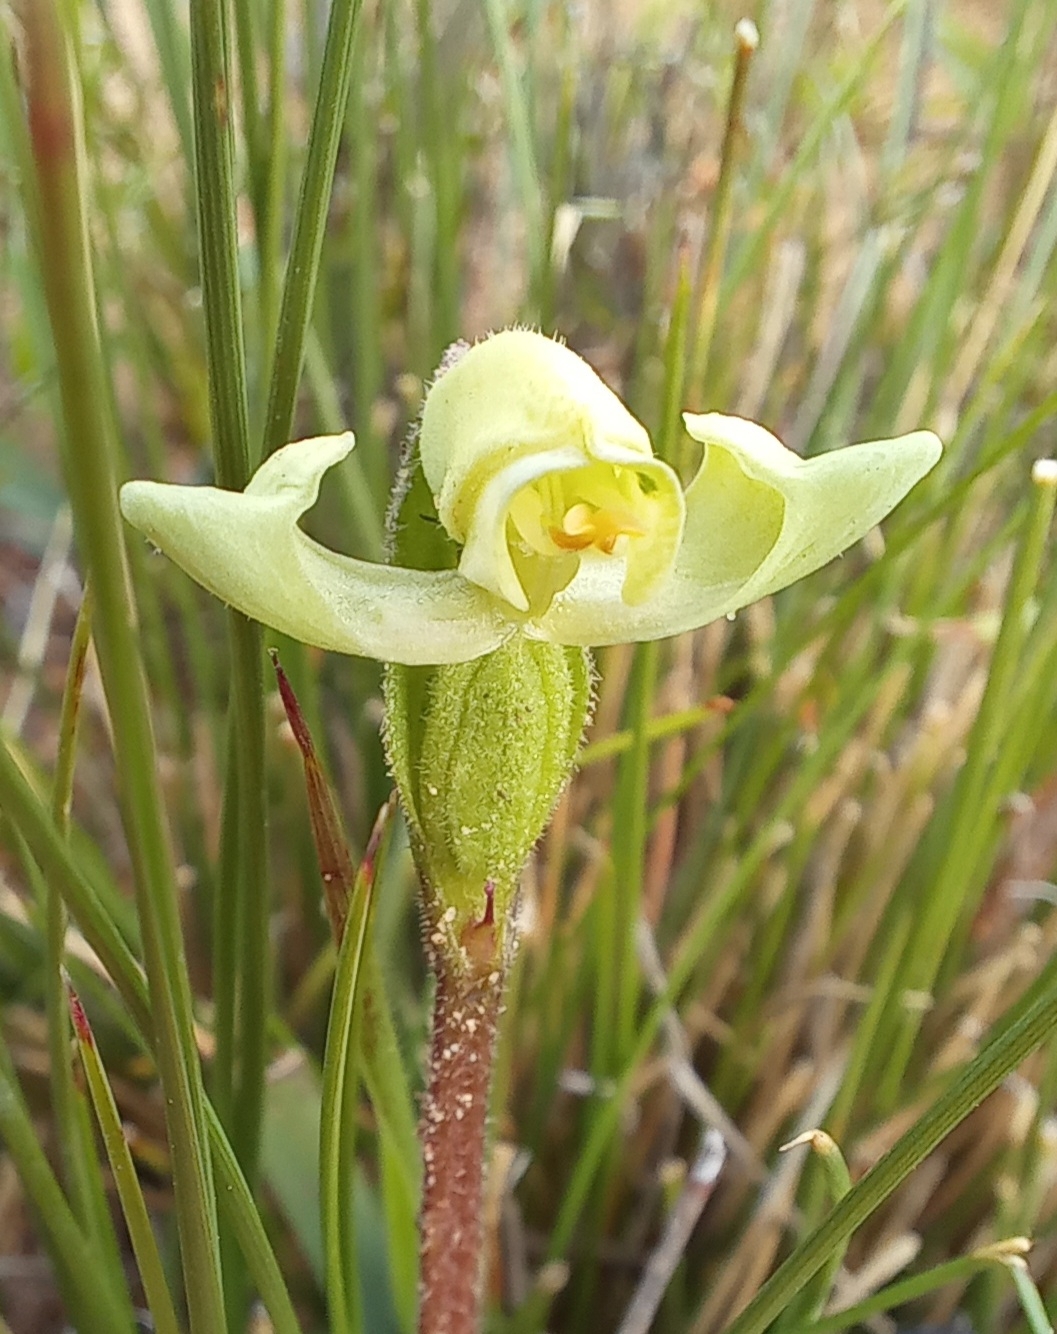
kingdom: Plantae
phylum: Tracheophyta
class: Liliopsida
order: Asparagales
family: Orchidaceae
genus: Disperis
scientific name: Disperis villosa
